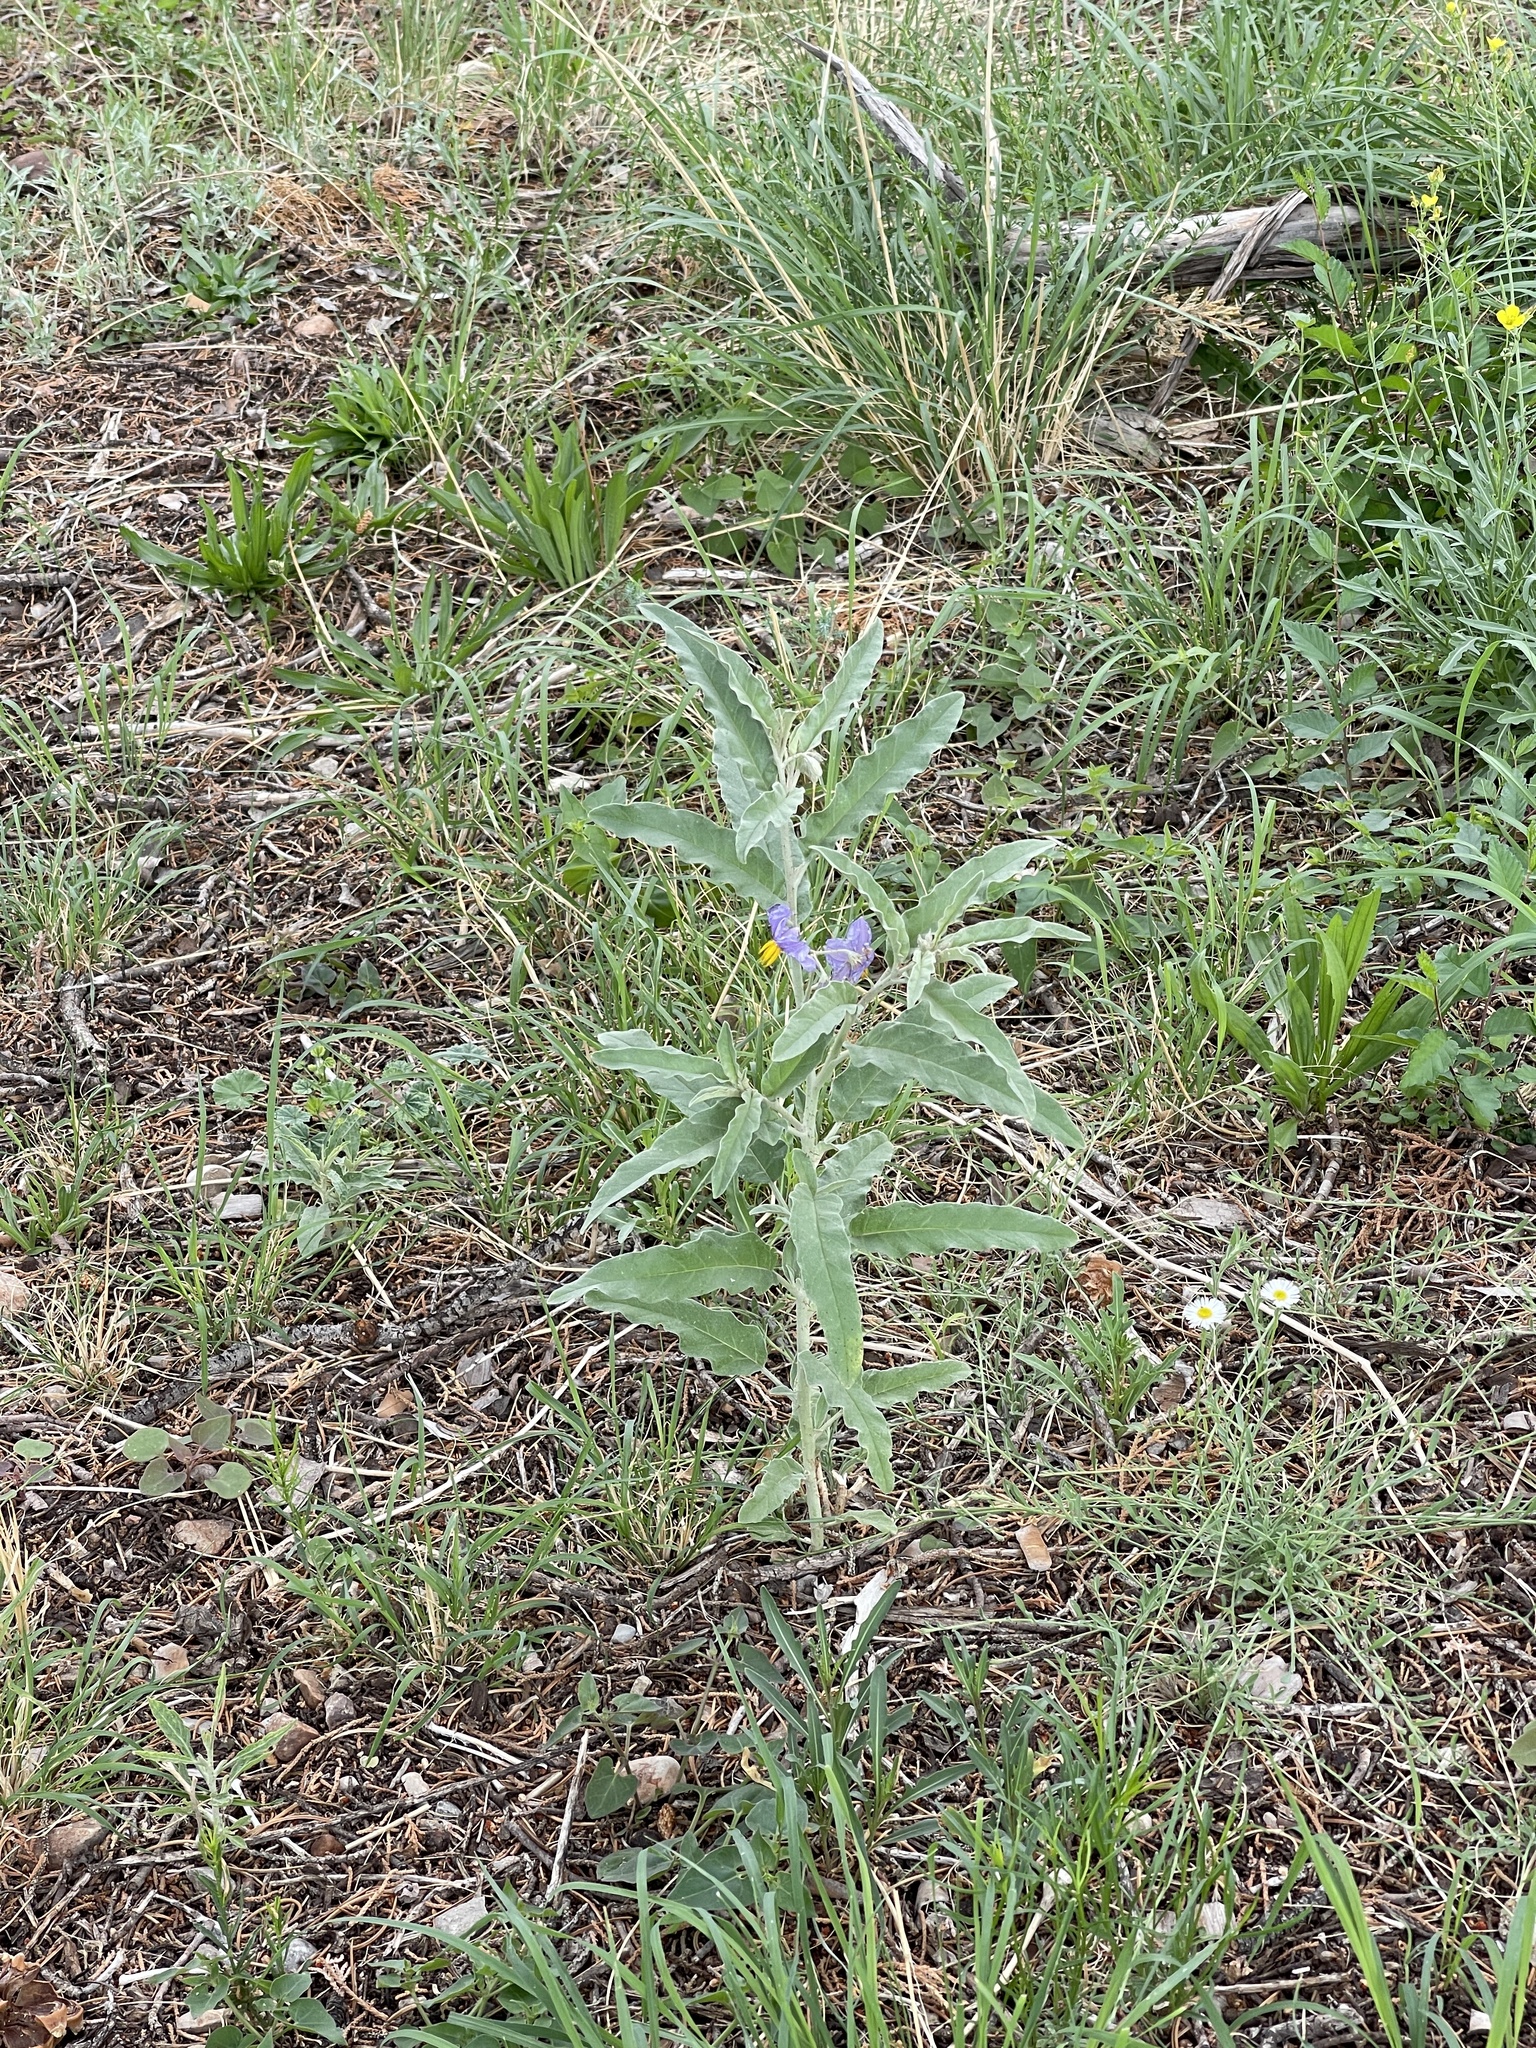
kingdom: Plantae
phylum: Tracheophyta
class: Magnoliopsida
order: Solanales
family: Solanaceae
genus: Solanum
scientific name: Solanum elaeagnifolium
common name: Silverleaf nightshade
